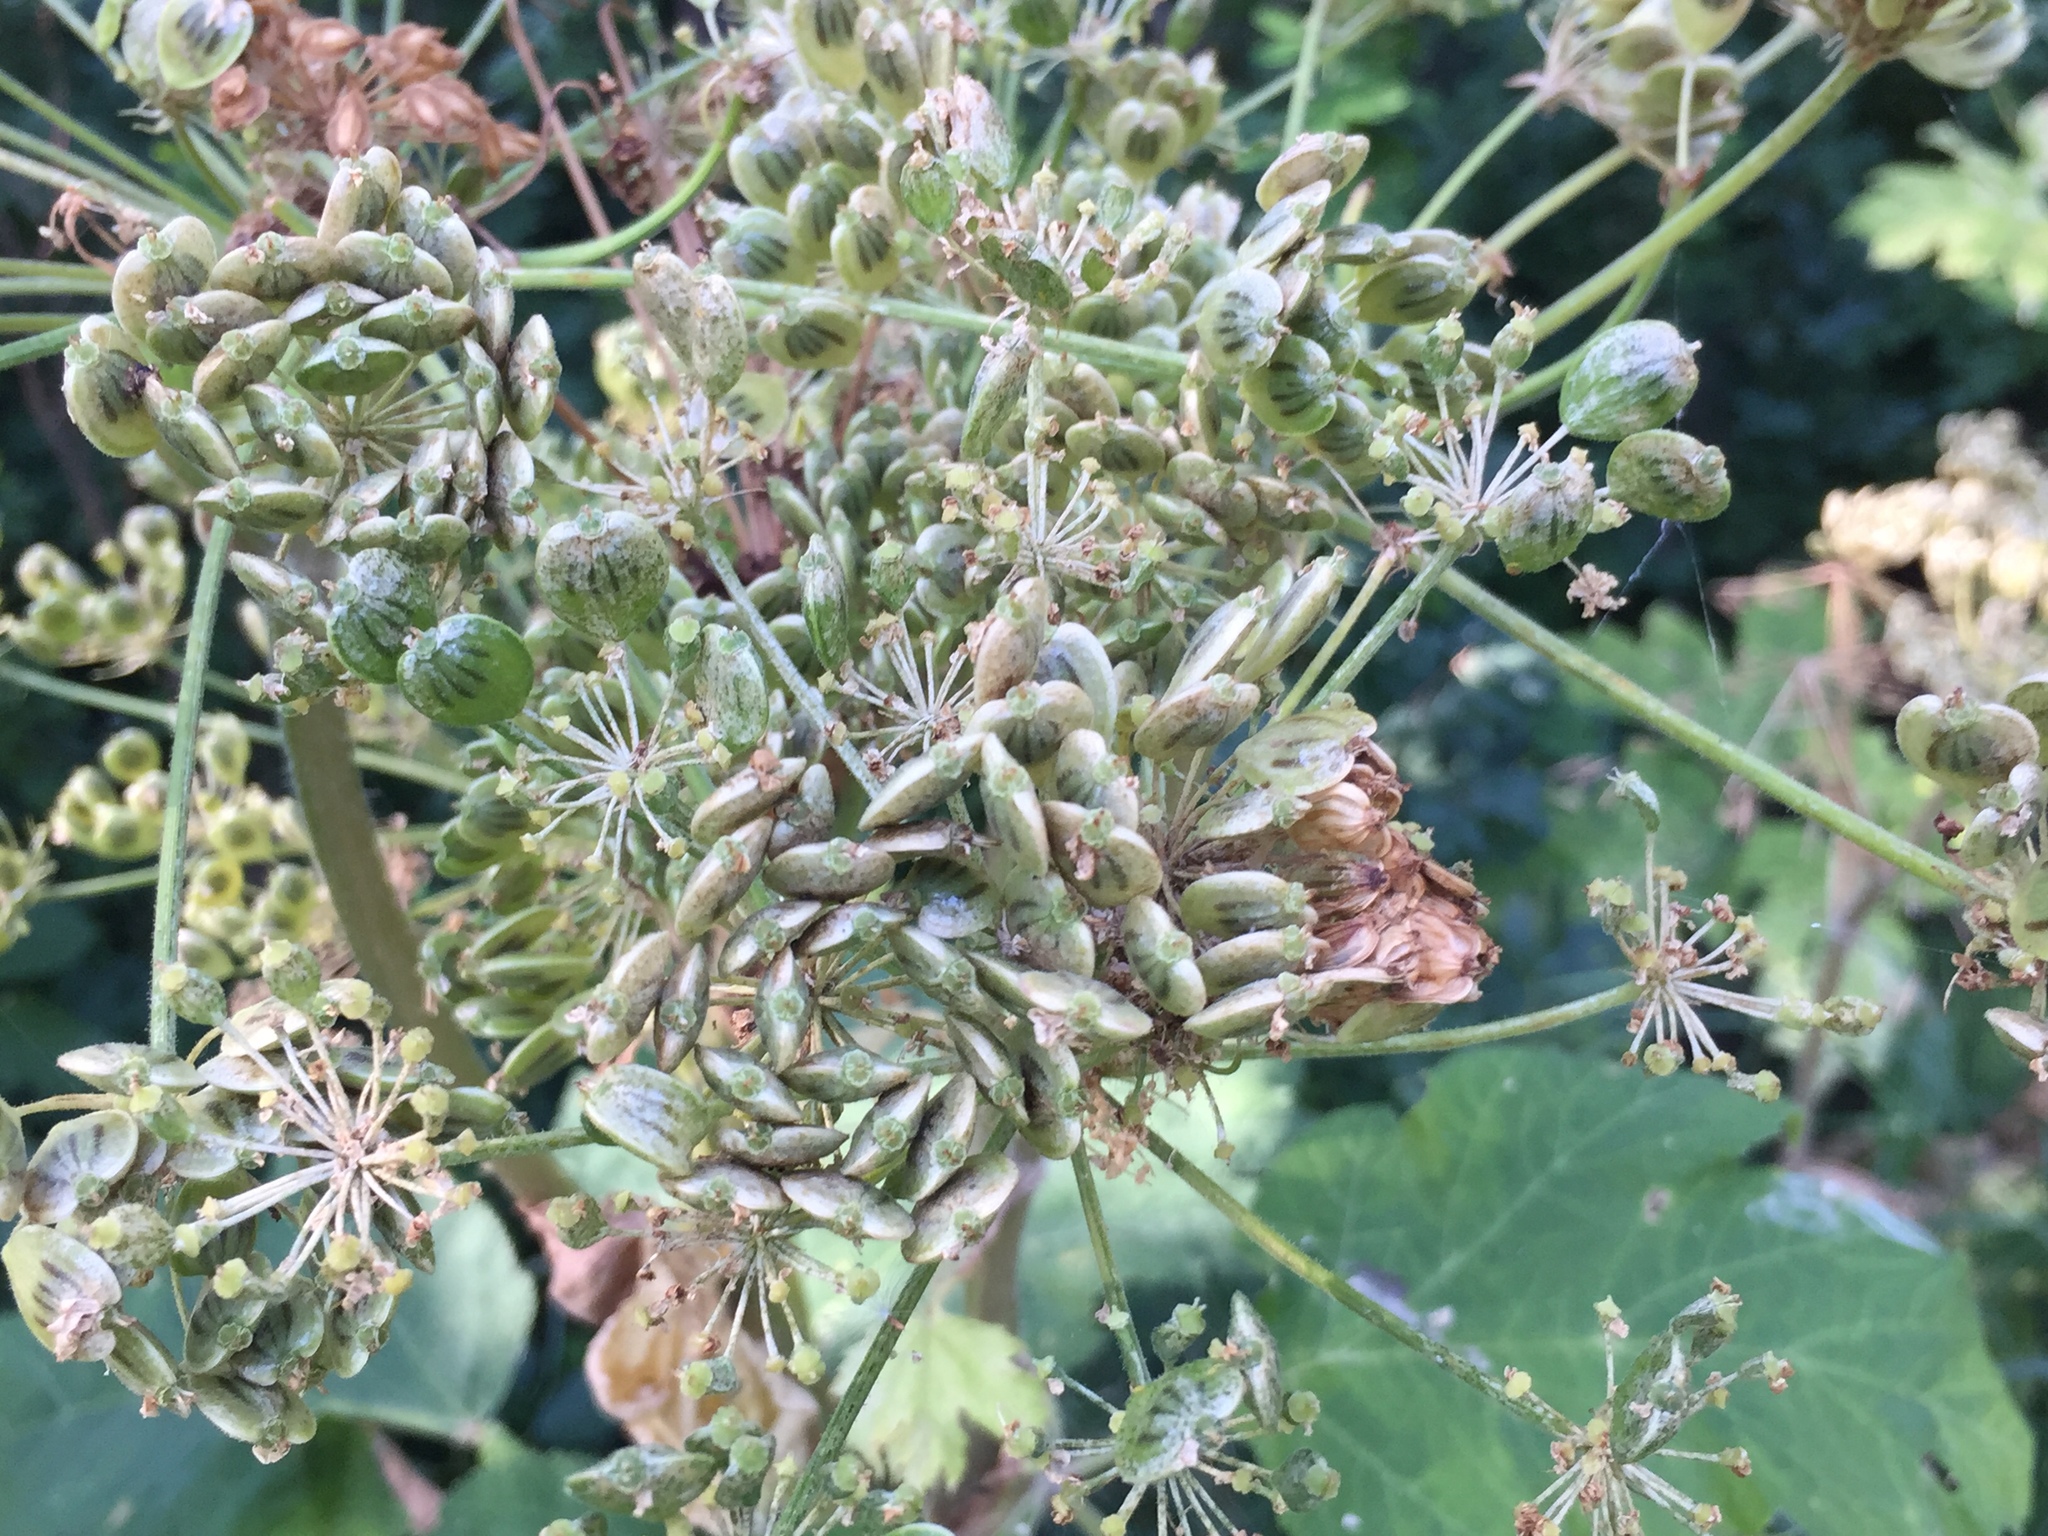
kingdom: Plantae
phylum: Tracheophyta
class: Magnoliopsida
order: Apiales
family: Apiaceae
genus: Heracleum
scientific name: Heracleum maximum
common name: American cow parsnip
